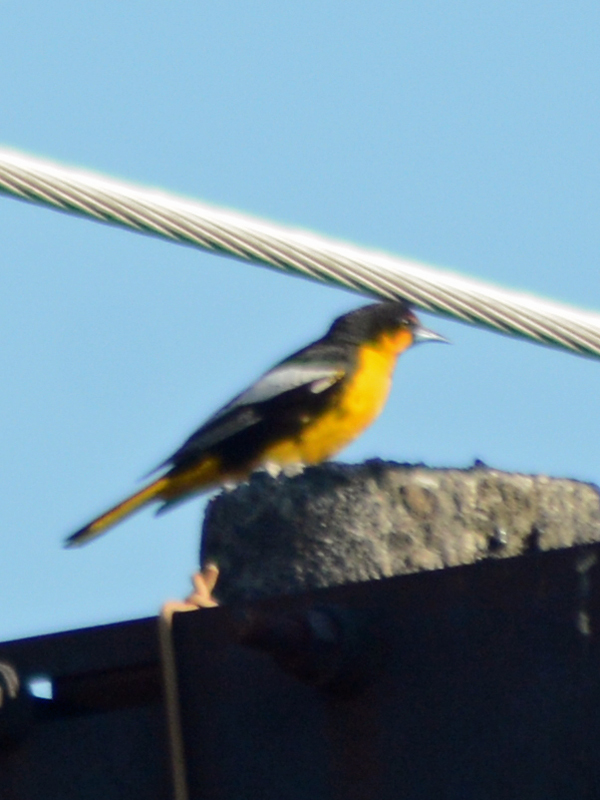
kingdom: Animalia
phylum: Chordata
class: Aves
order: Passeriformes
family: Icteridae
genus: Icterus
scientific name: Icterus abeillei
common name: Black-backed oriole
